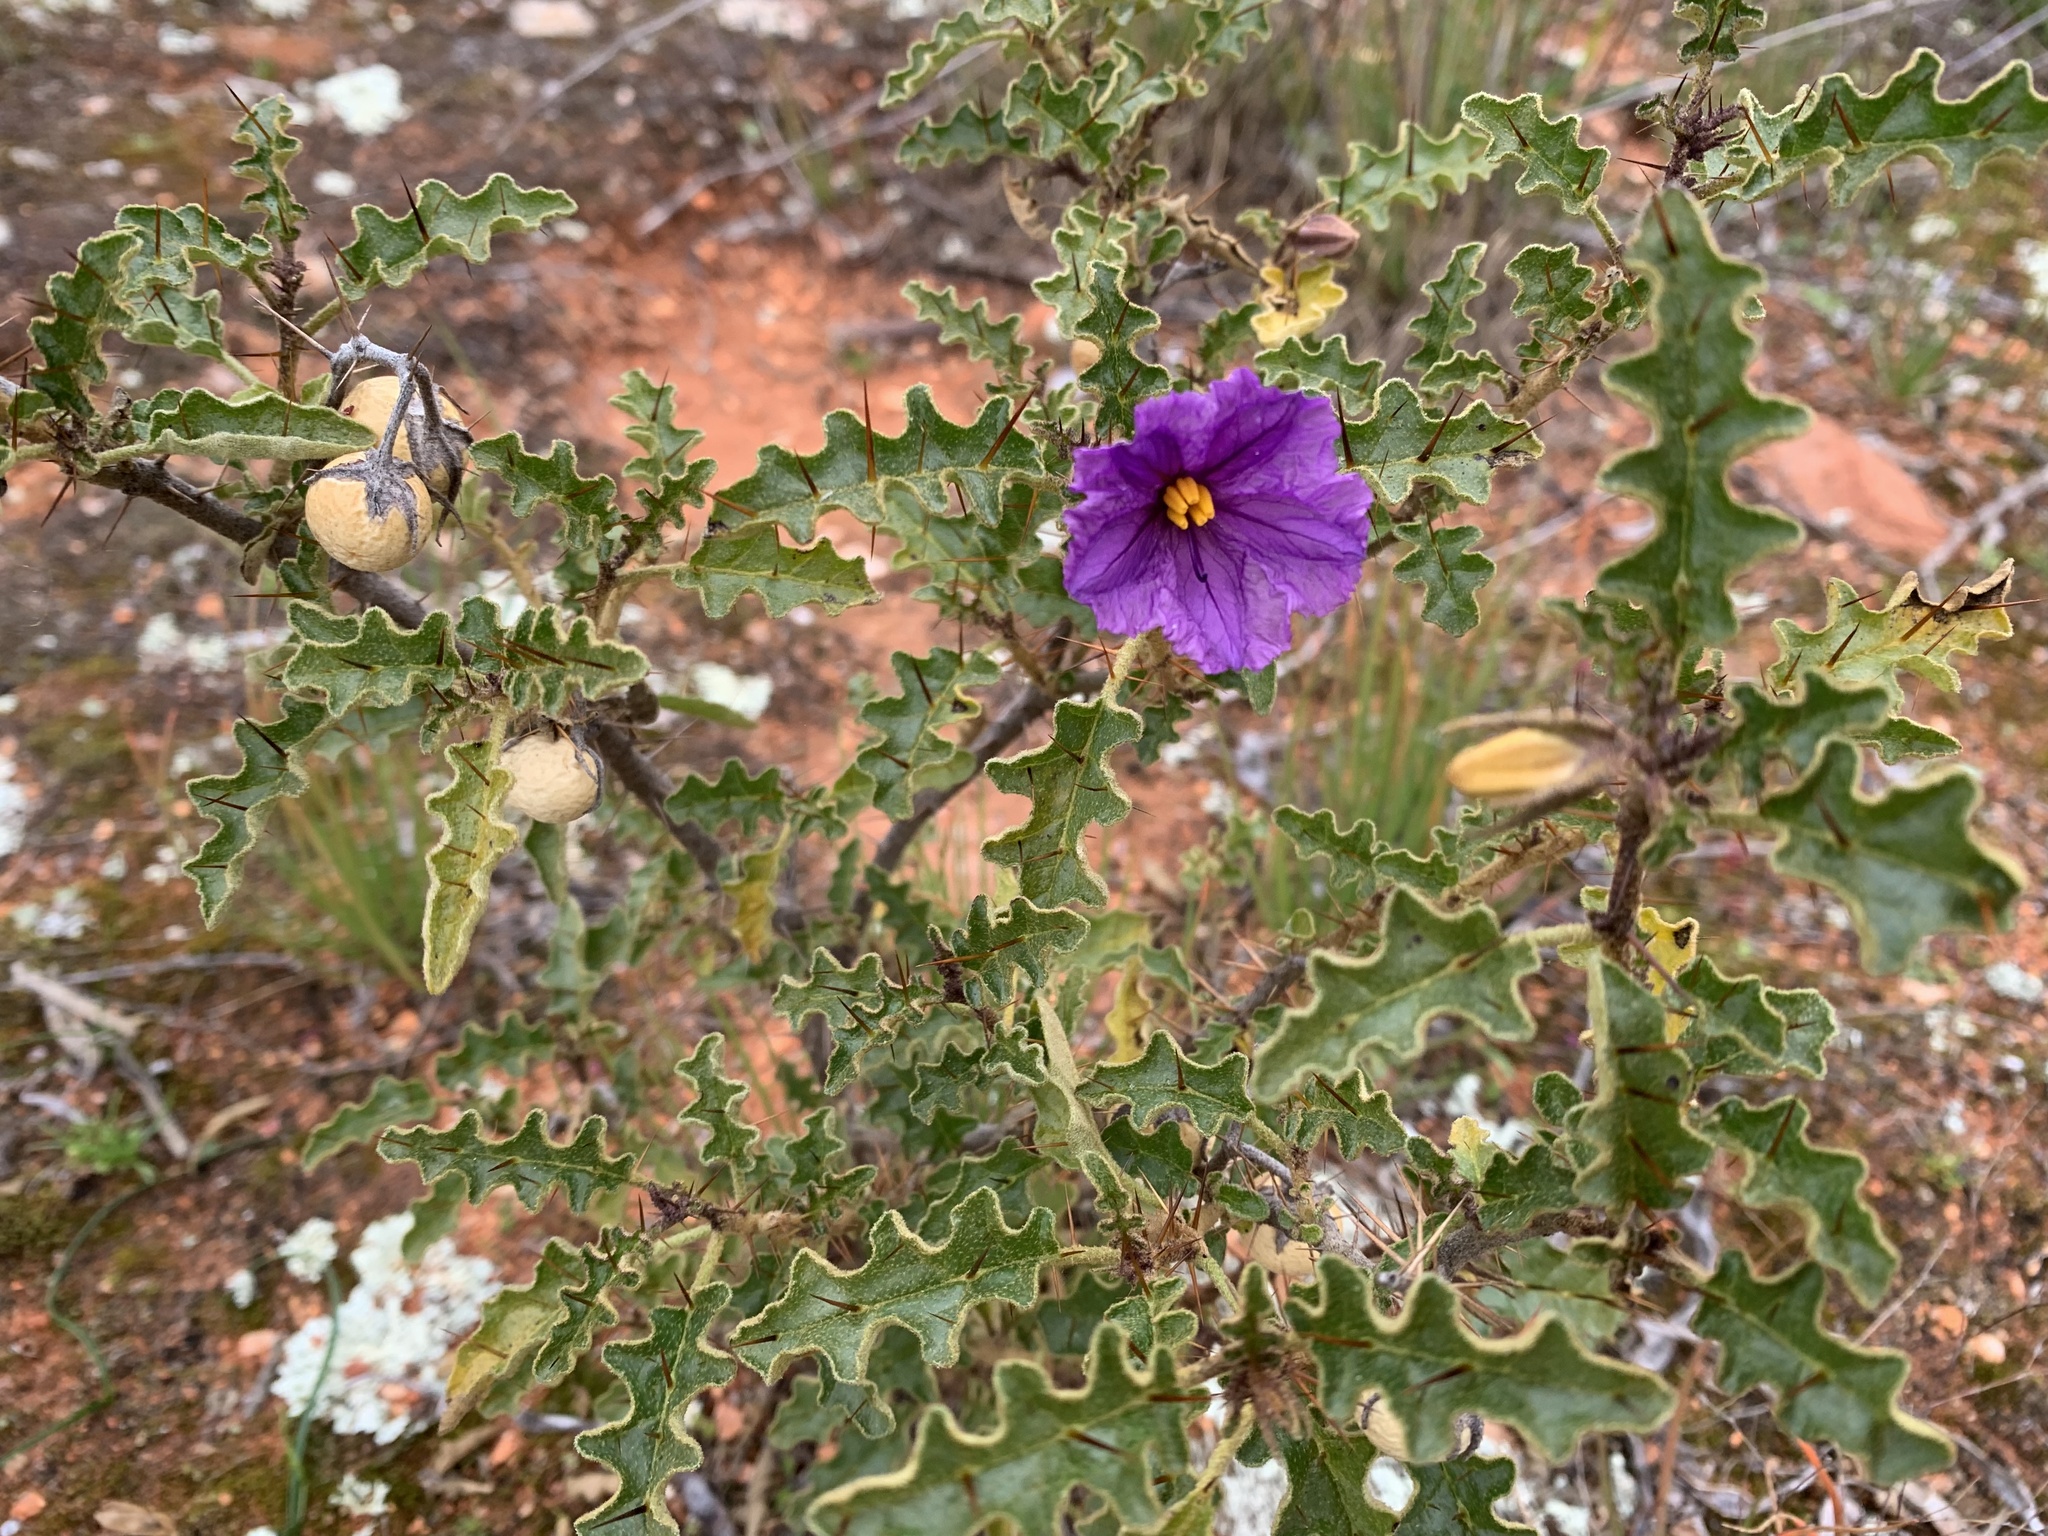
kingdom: Plantae
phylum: Tracheophyta
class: Magnoliopsida
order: Solanales
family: Solanaceae
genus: Solanum
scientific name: Solanum petrophilum
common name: Rock nightshade
